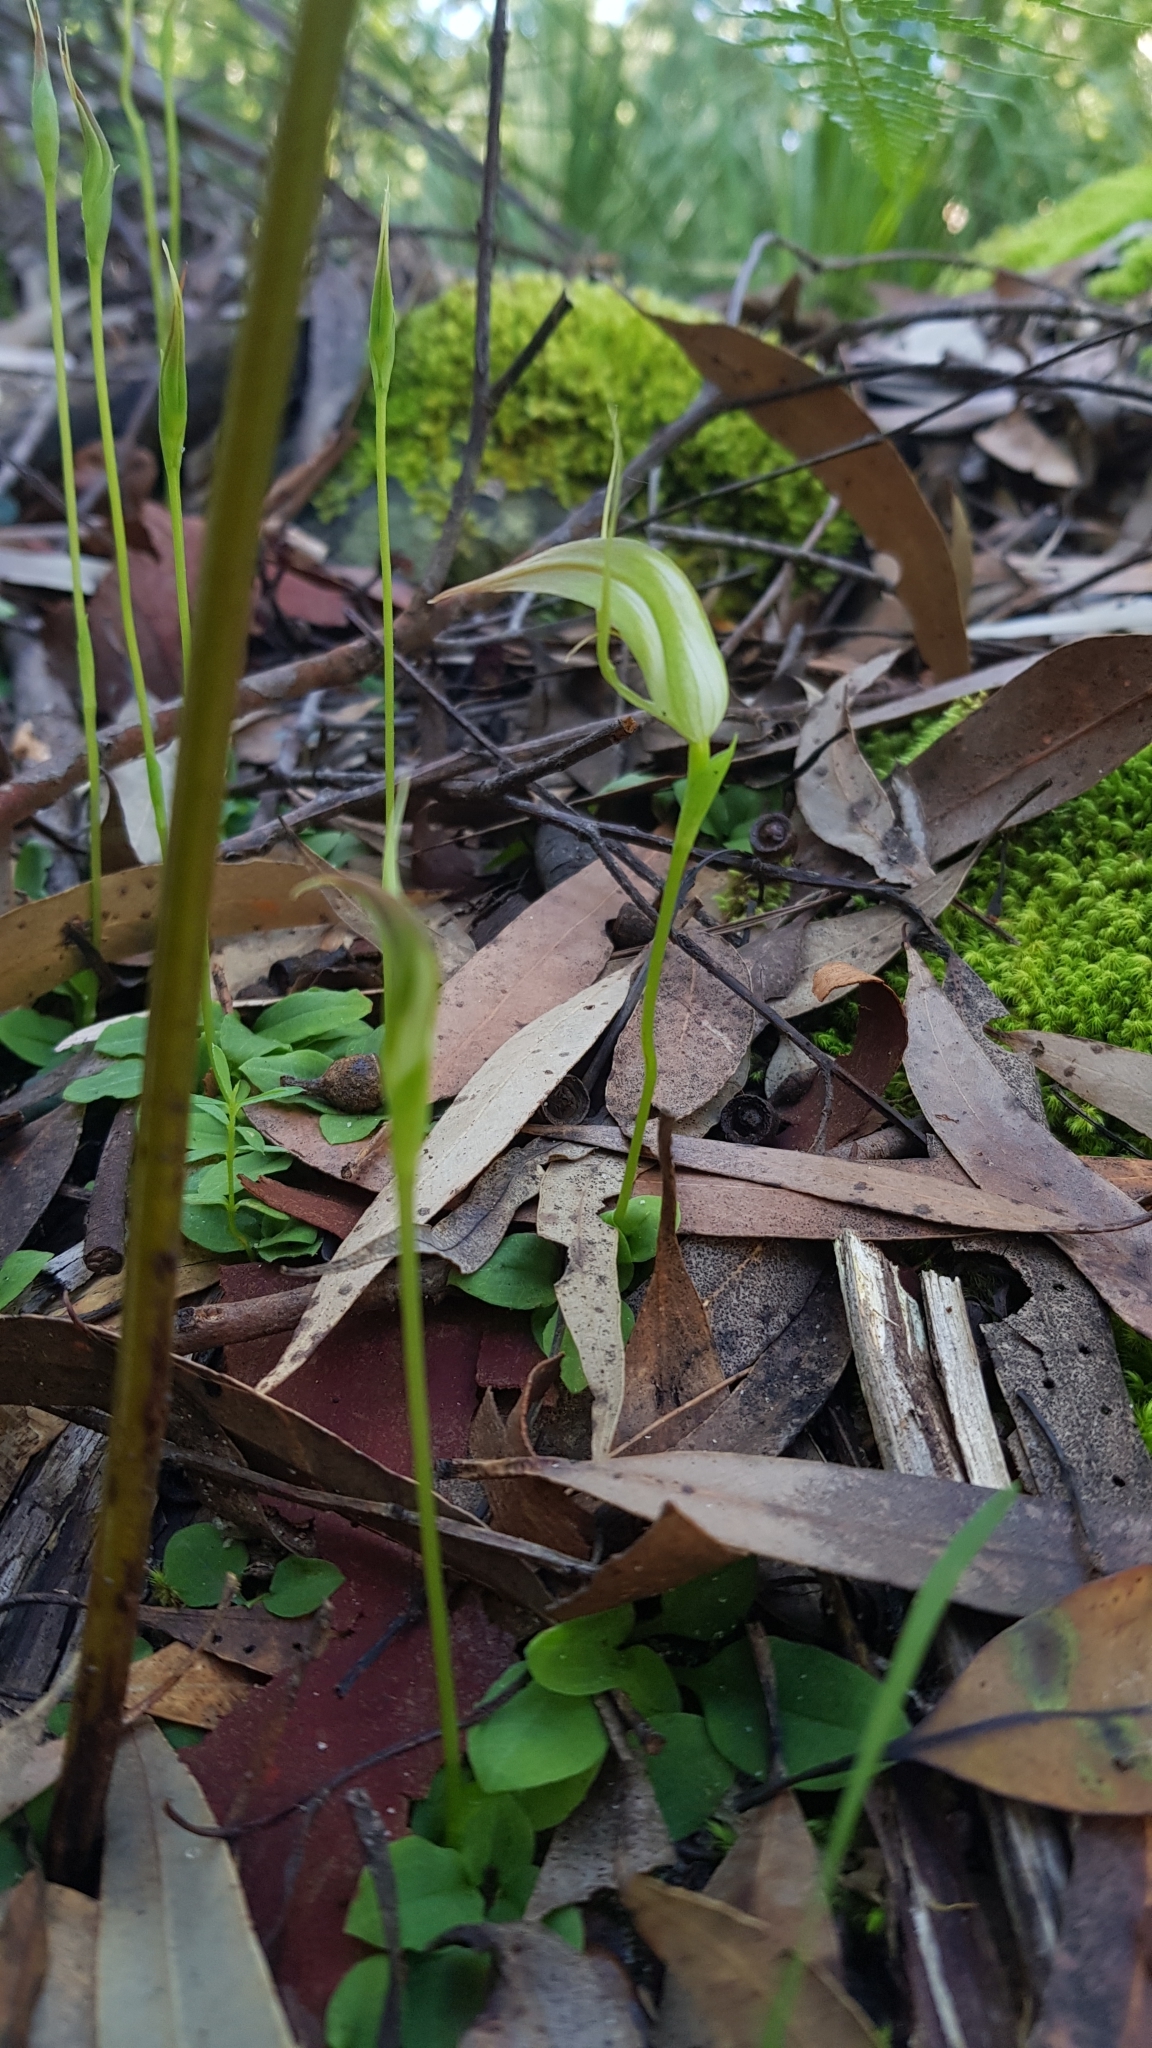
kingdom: Plantae
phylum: Tracheophyta
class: Liliopsida
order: Asparagales
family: Orchidaceae
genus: Pterostylis
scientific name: Pterostylis acuminata
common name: Pointed greenhood
